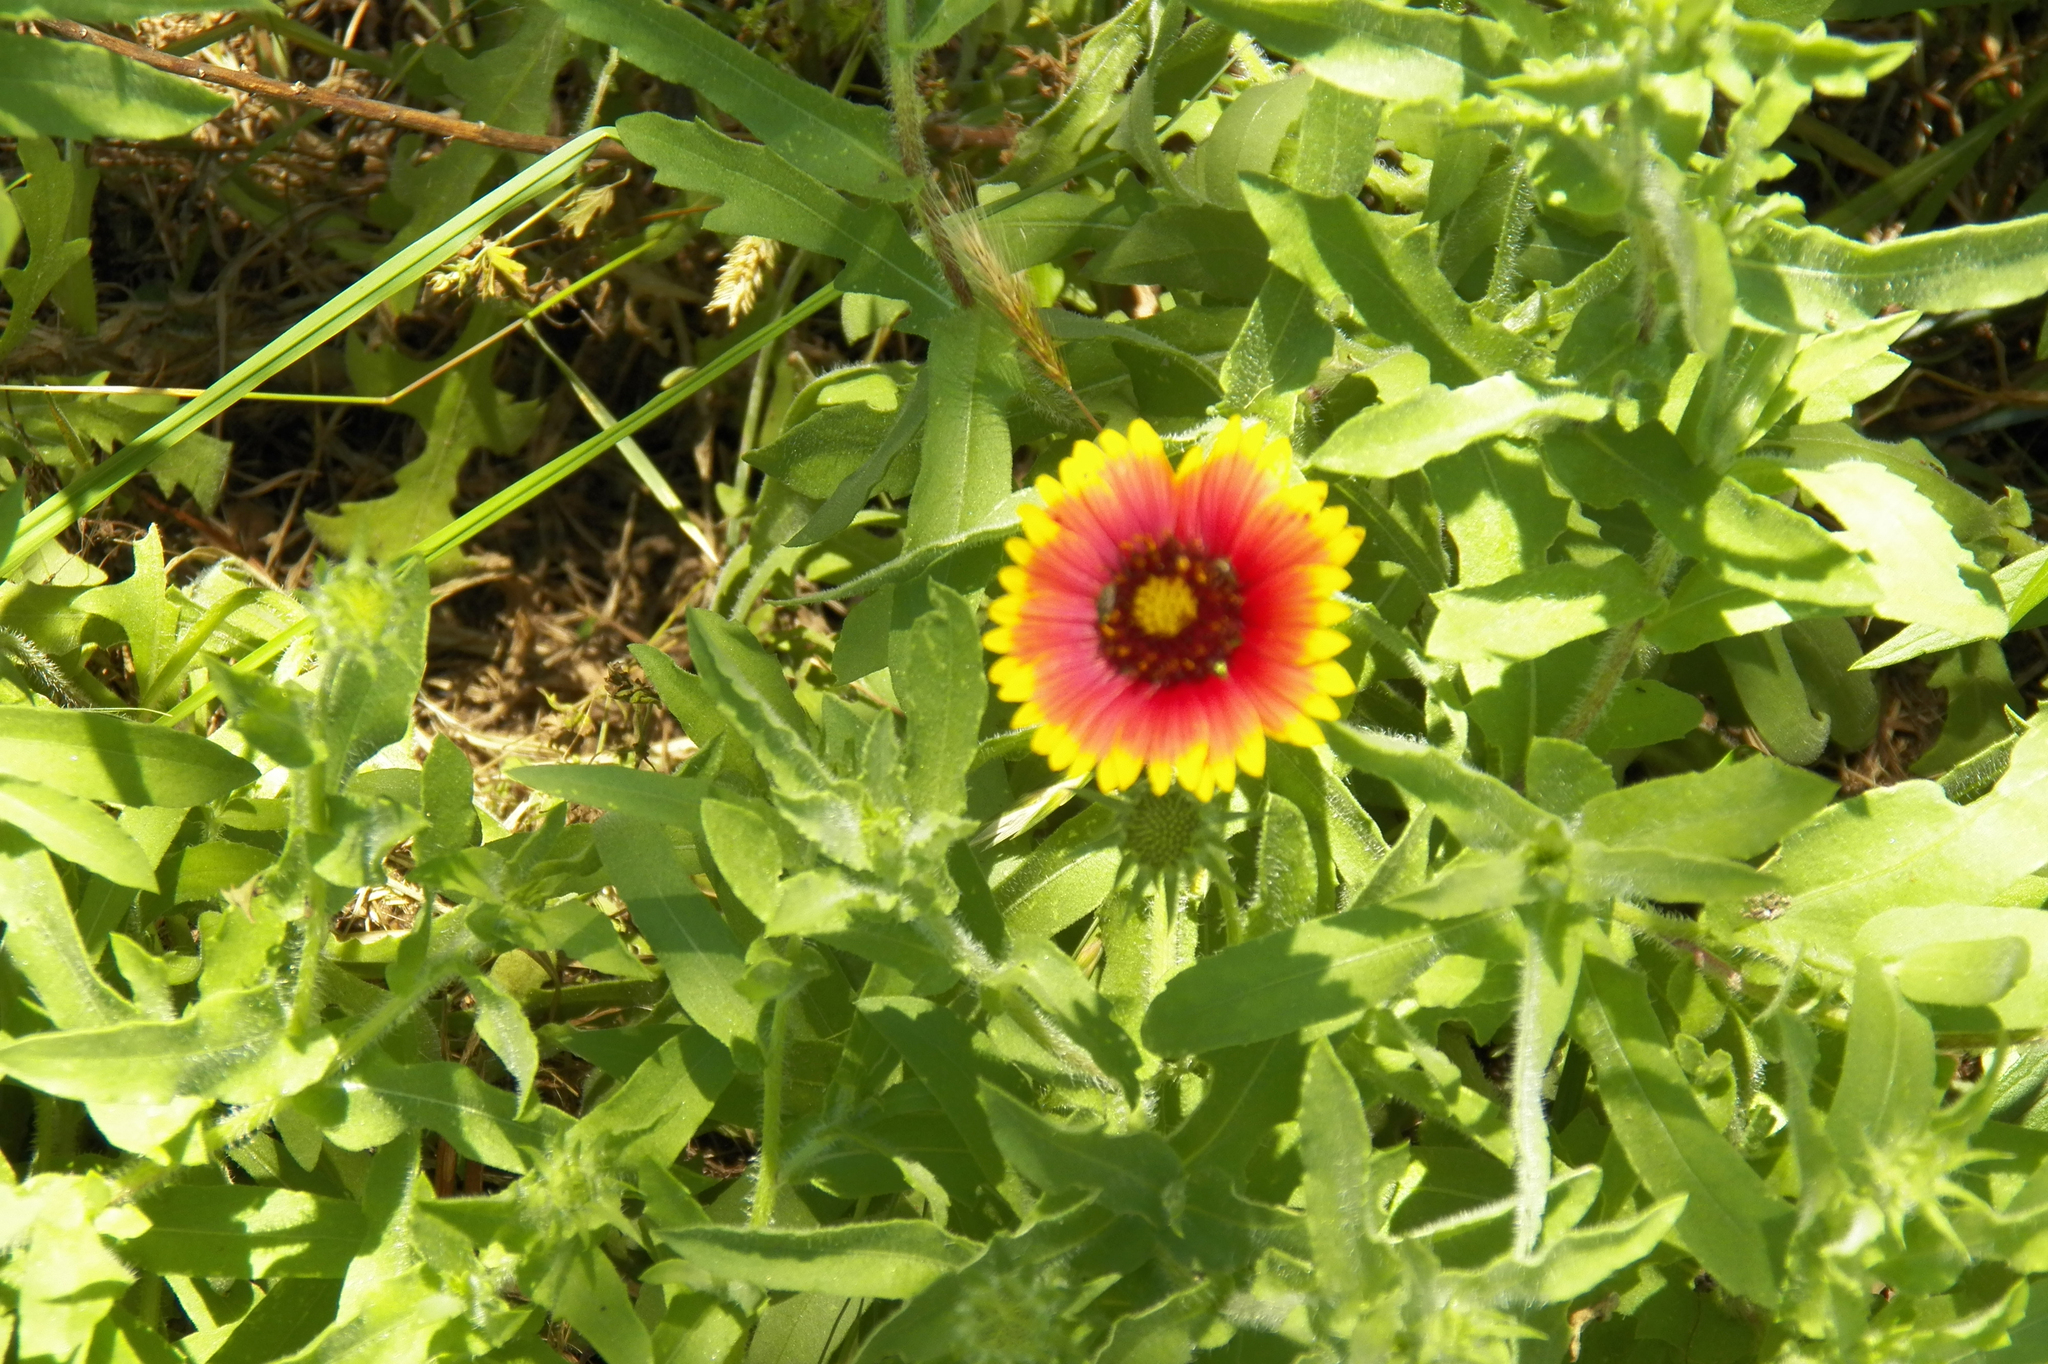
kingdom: Plantae
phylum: Tracheophyta
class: Magnoliopsida
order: Asterales
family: Asteraceae
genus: Gaillardia
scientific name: Gaillardia pulchella
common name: Firewheel
